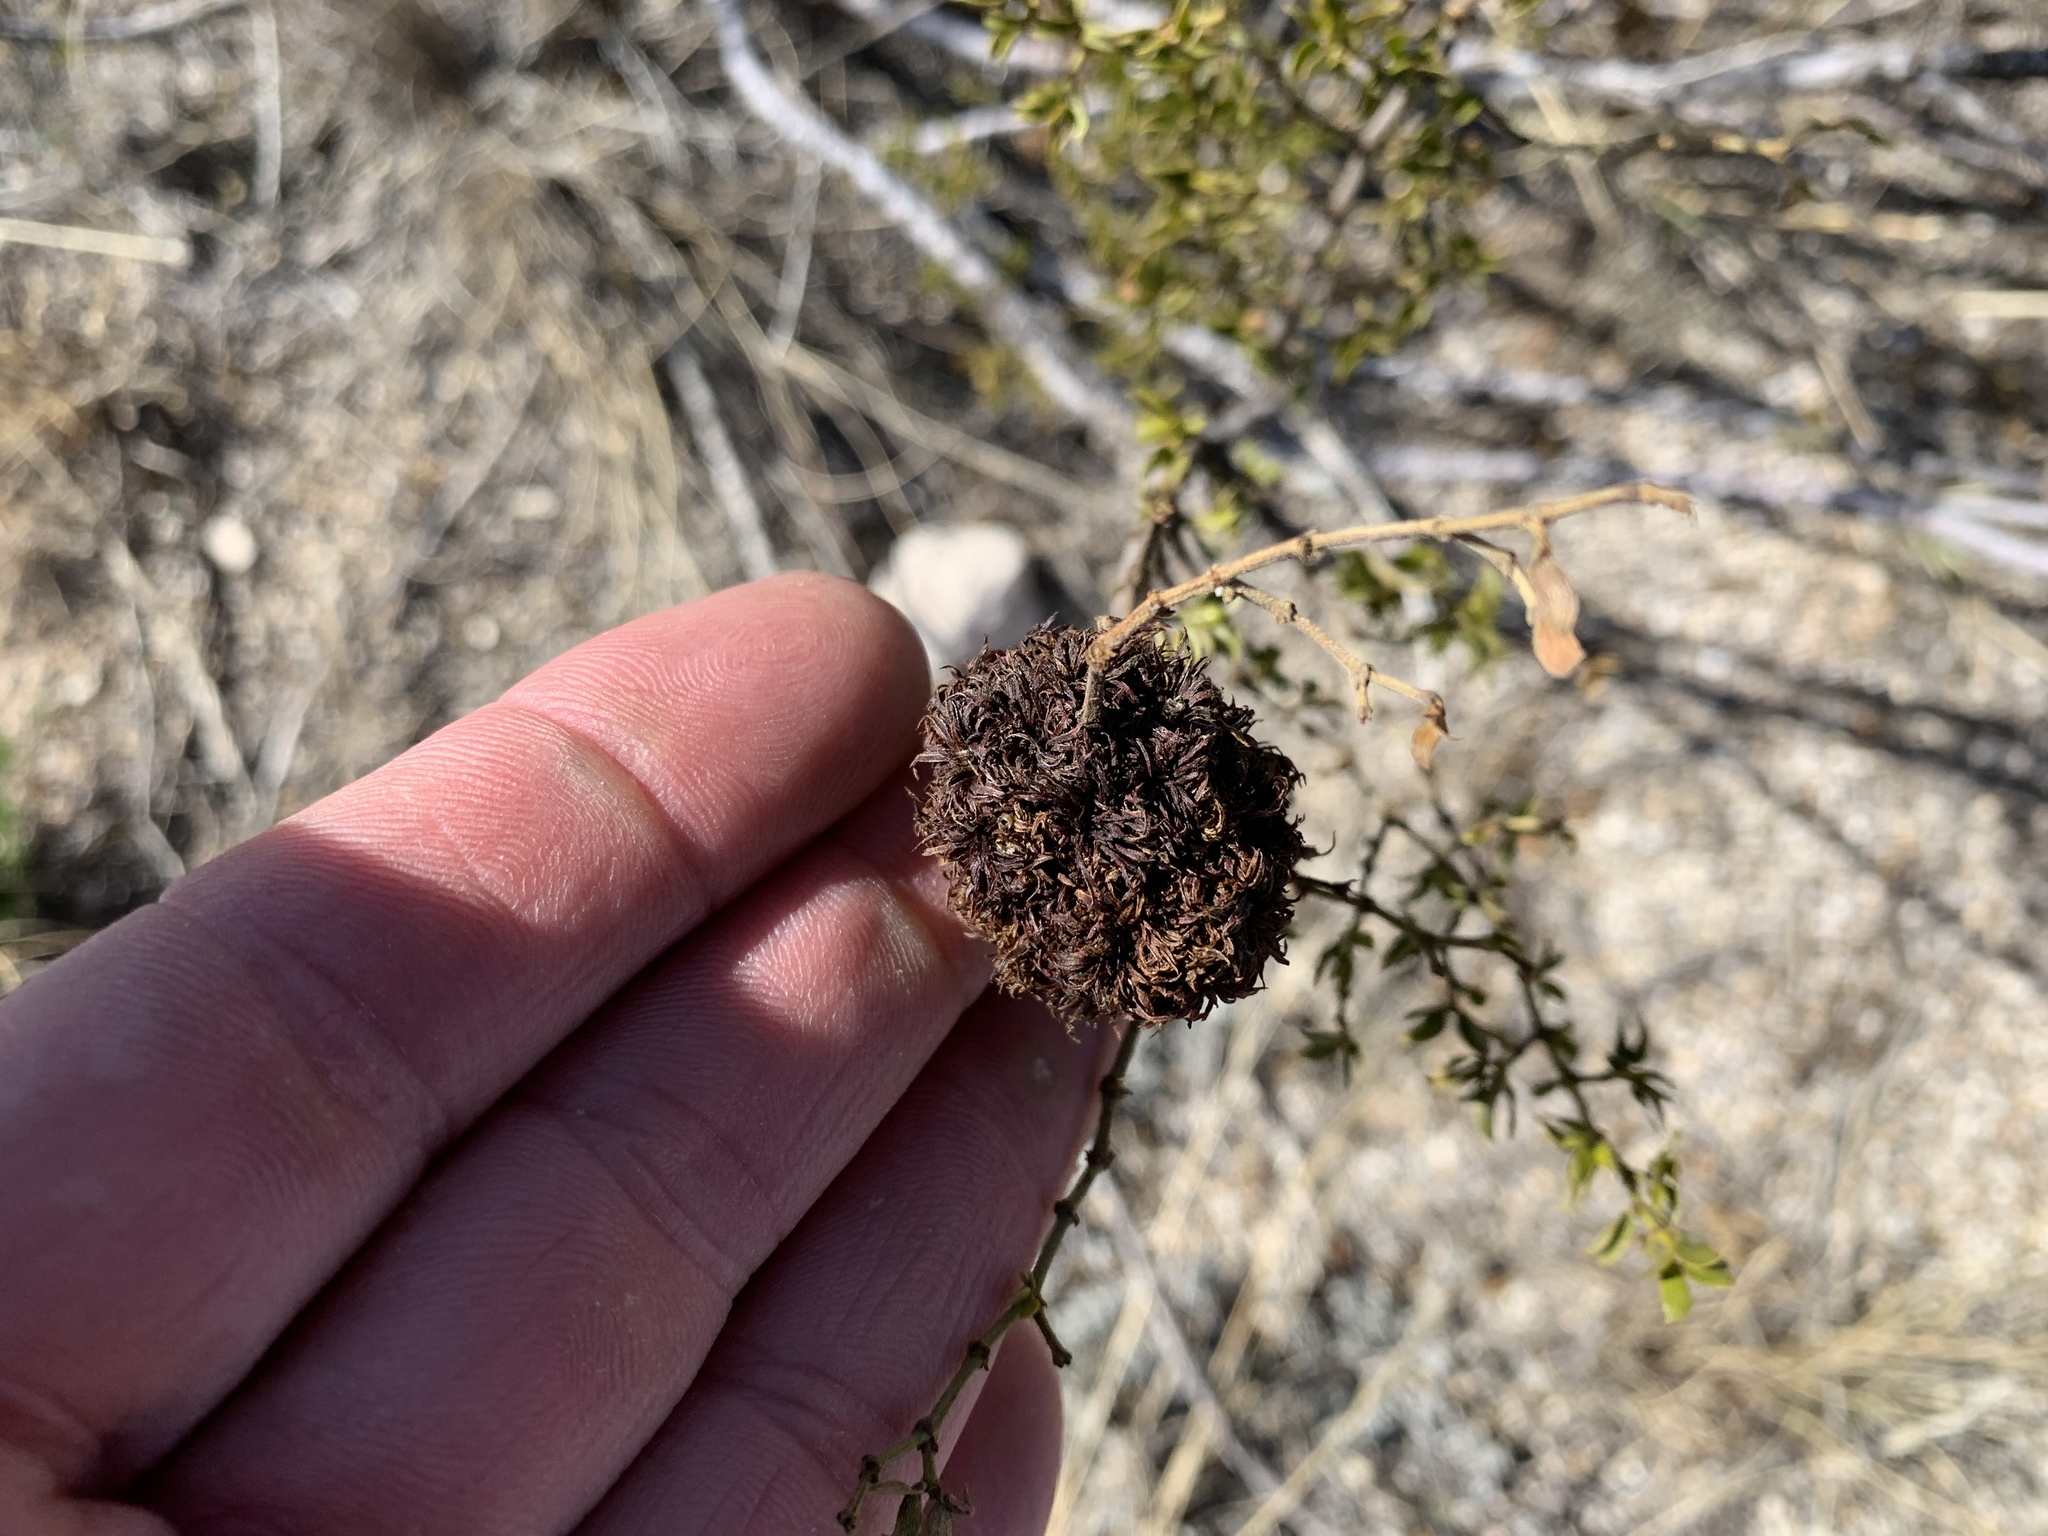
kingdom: Animalia
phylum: Arthropoda
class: Insecta
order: Diptera
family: Cecidomyiidae
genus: Asphondylia
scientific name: Asphondylia auripila
